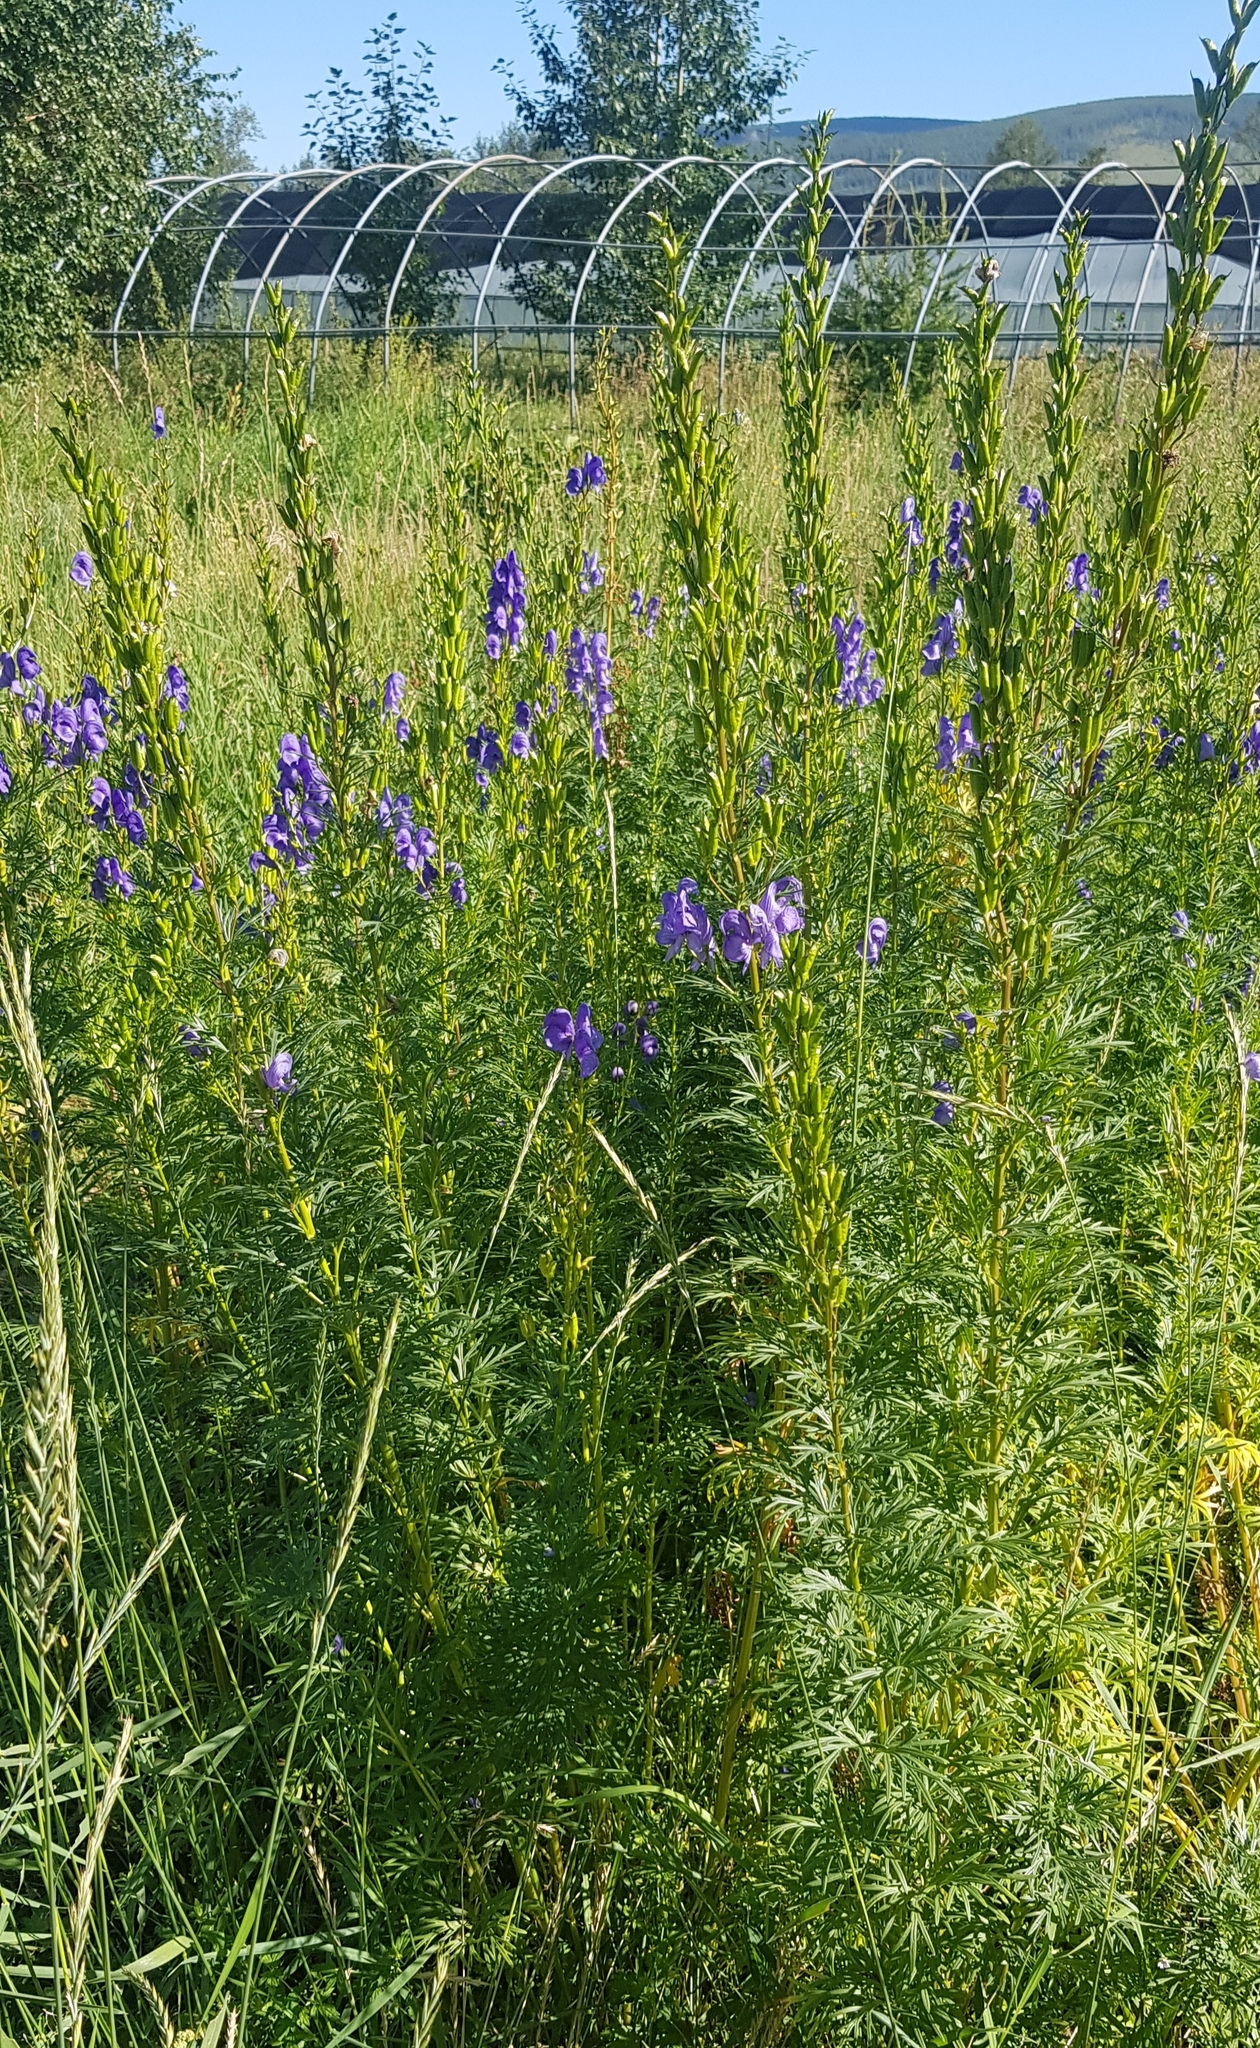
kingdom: Plantae
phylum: Tracheophyta
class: Magnoliopsida
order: Ranunculales
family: Ranunculaceae
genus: Aconitum
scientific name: Aconitum turczaninowii
